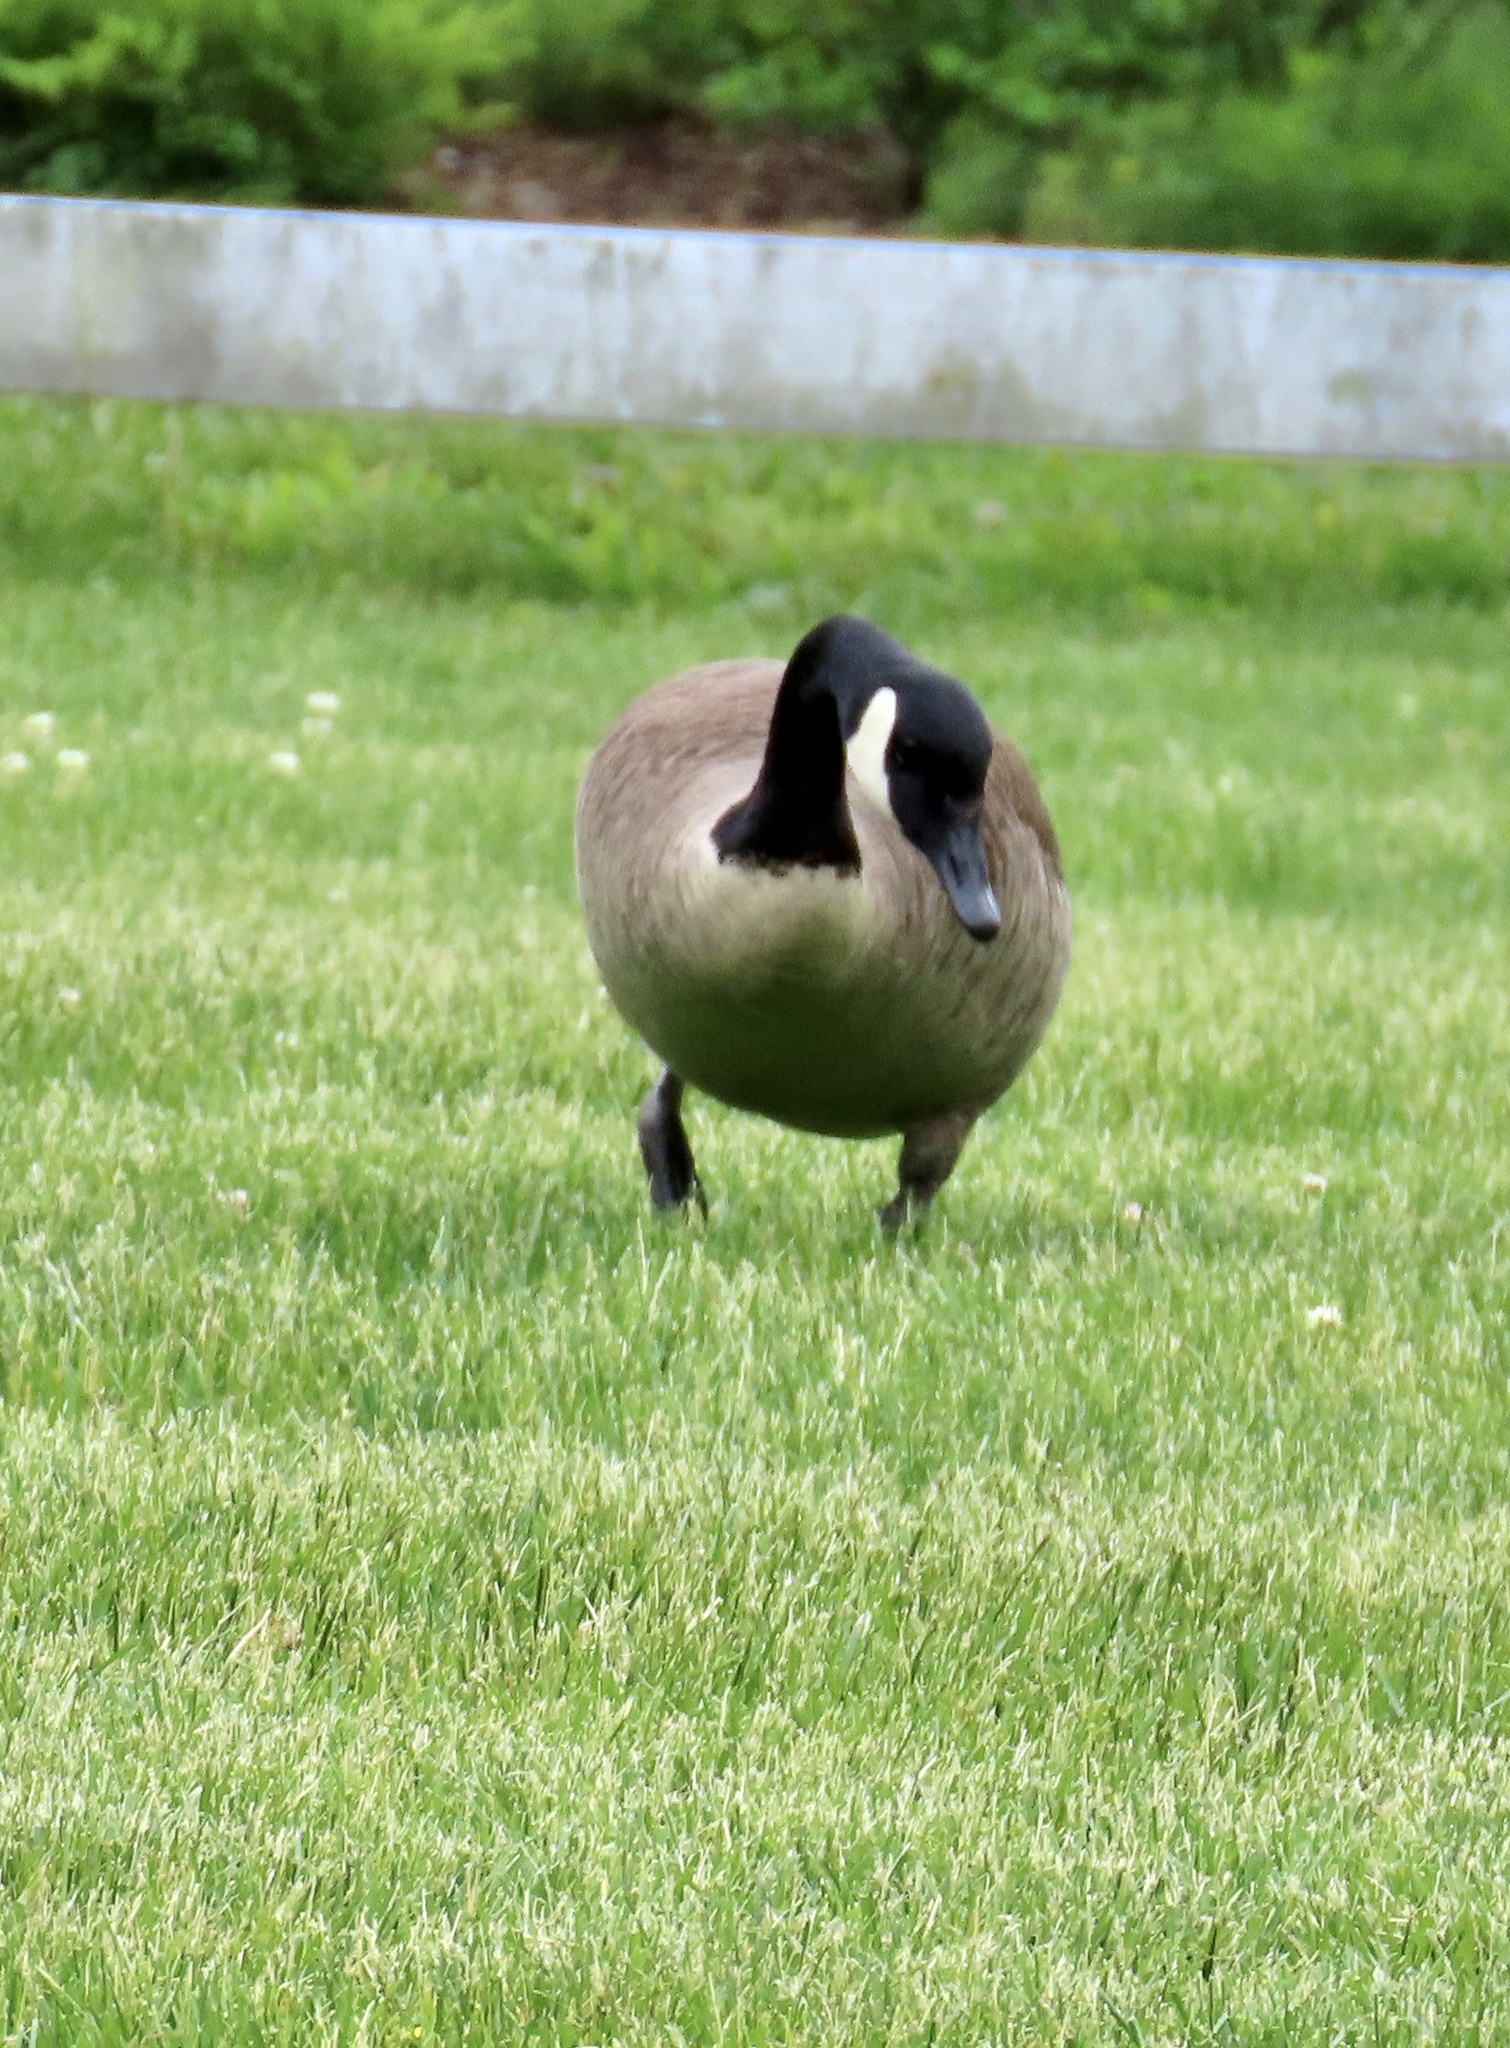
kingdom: Animalia
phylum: Chordata
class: Aves
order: Anseriformes
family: Anatidae
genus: Branta
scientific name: Branta canadensis
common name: Canada goose
